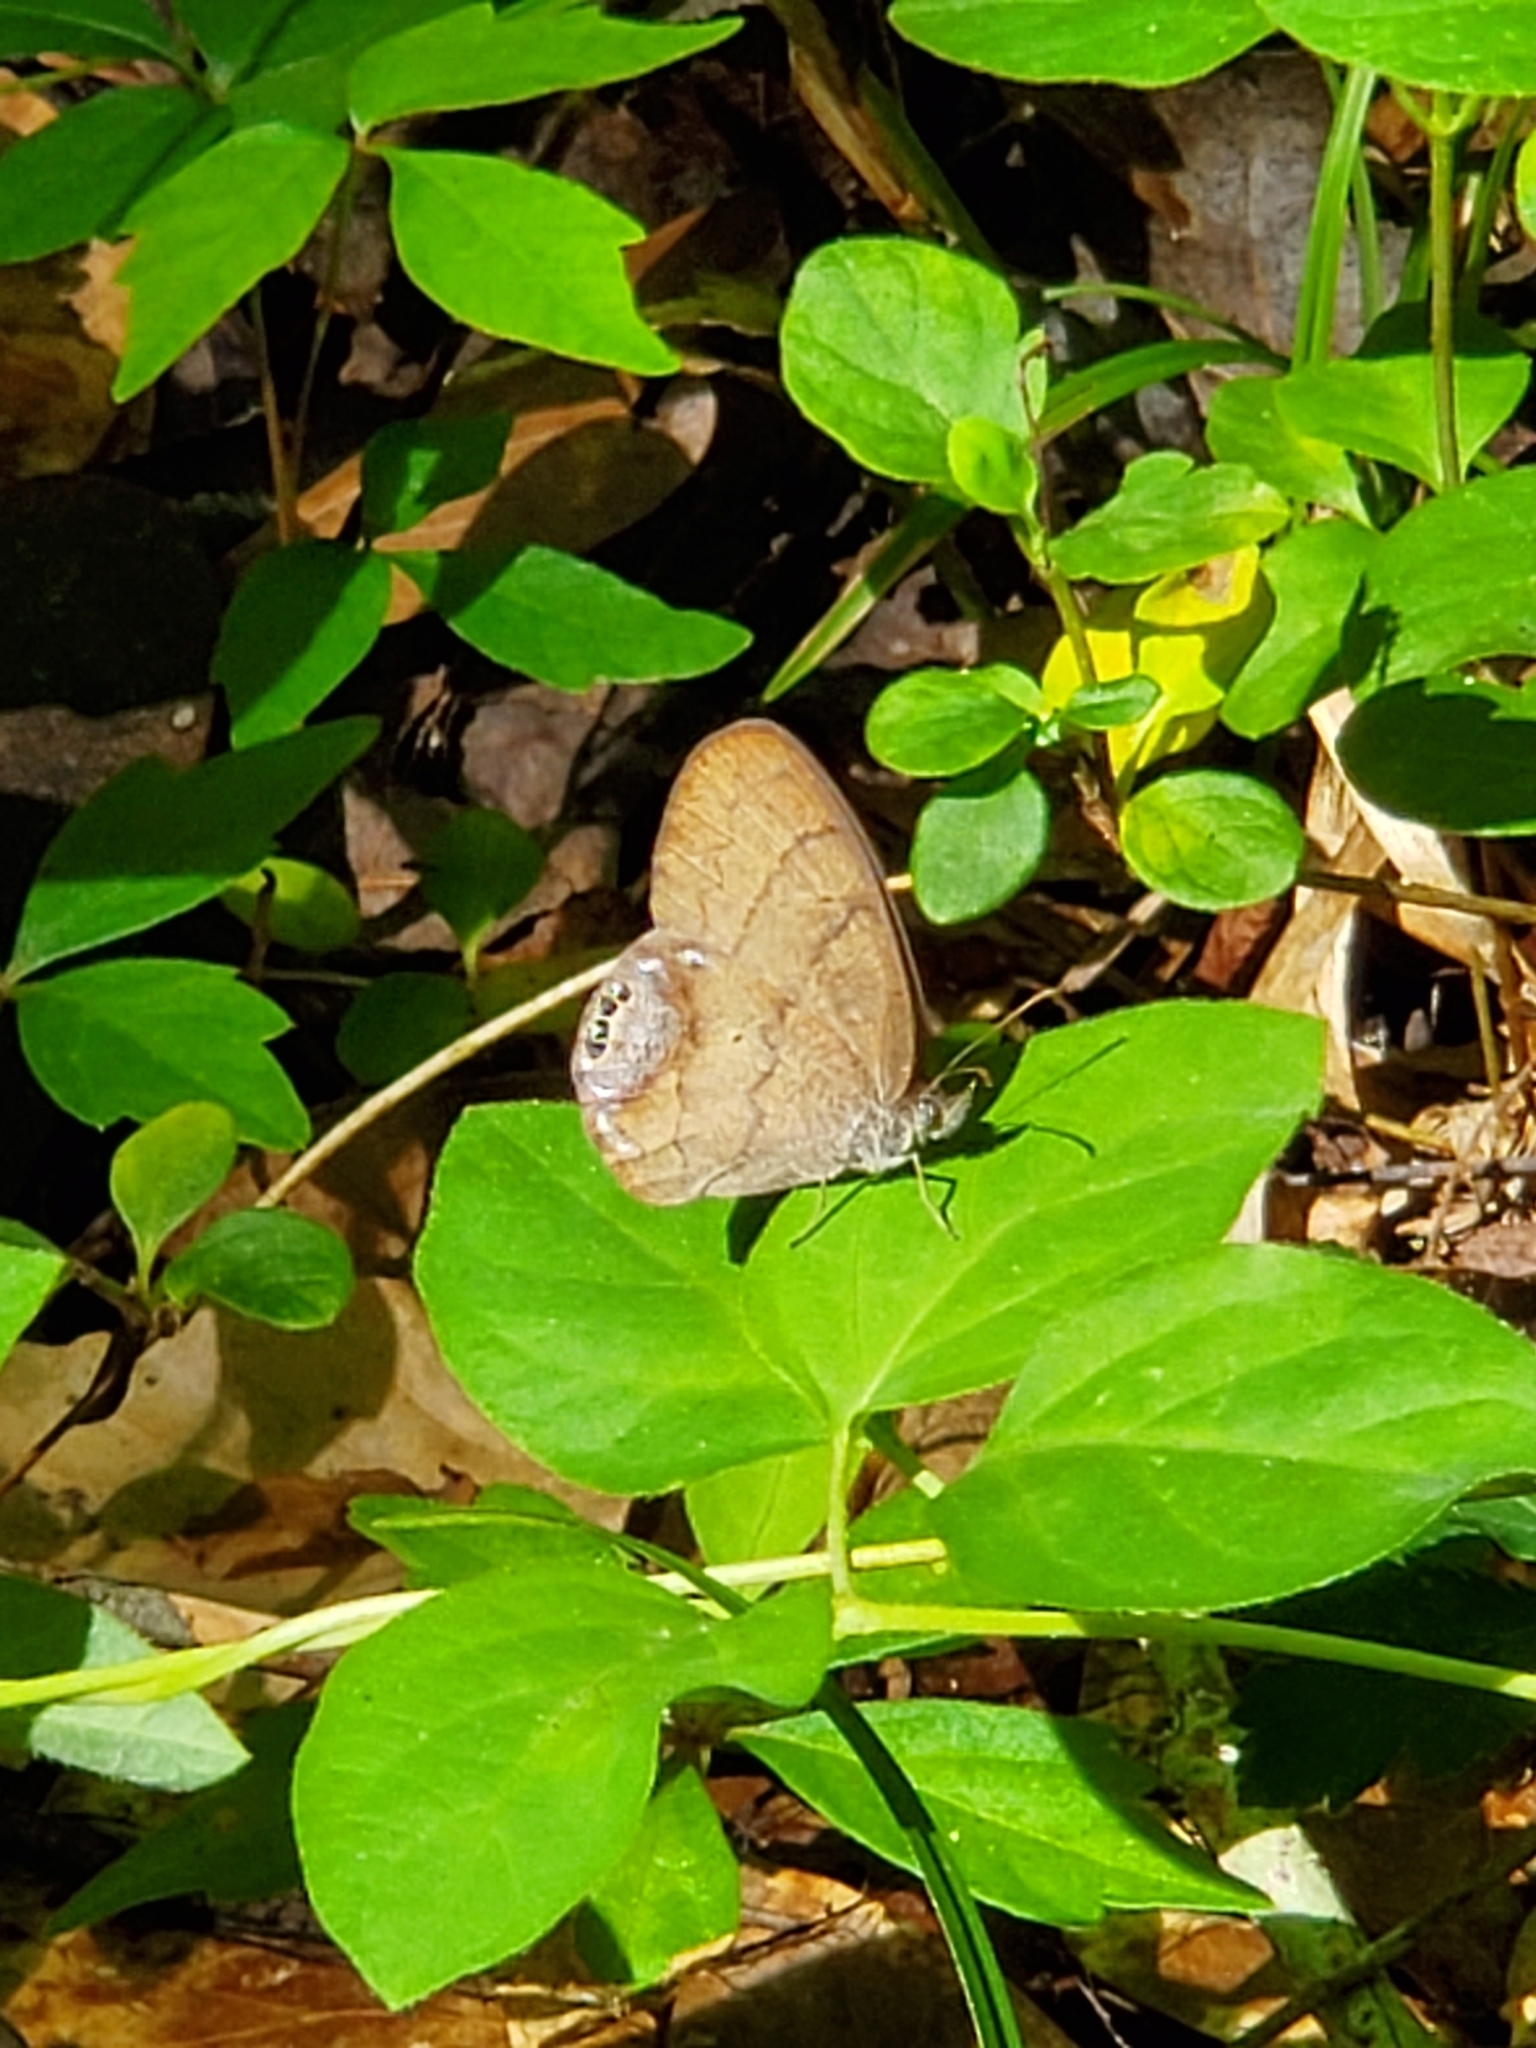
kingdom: Animalia
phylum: Arthropoda
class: Insecta
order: Lepidoptera
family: Nymphalidae
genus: Euptychia
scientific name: Euptychia cornelius
